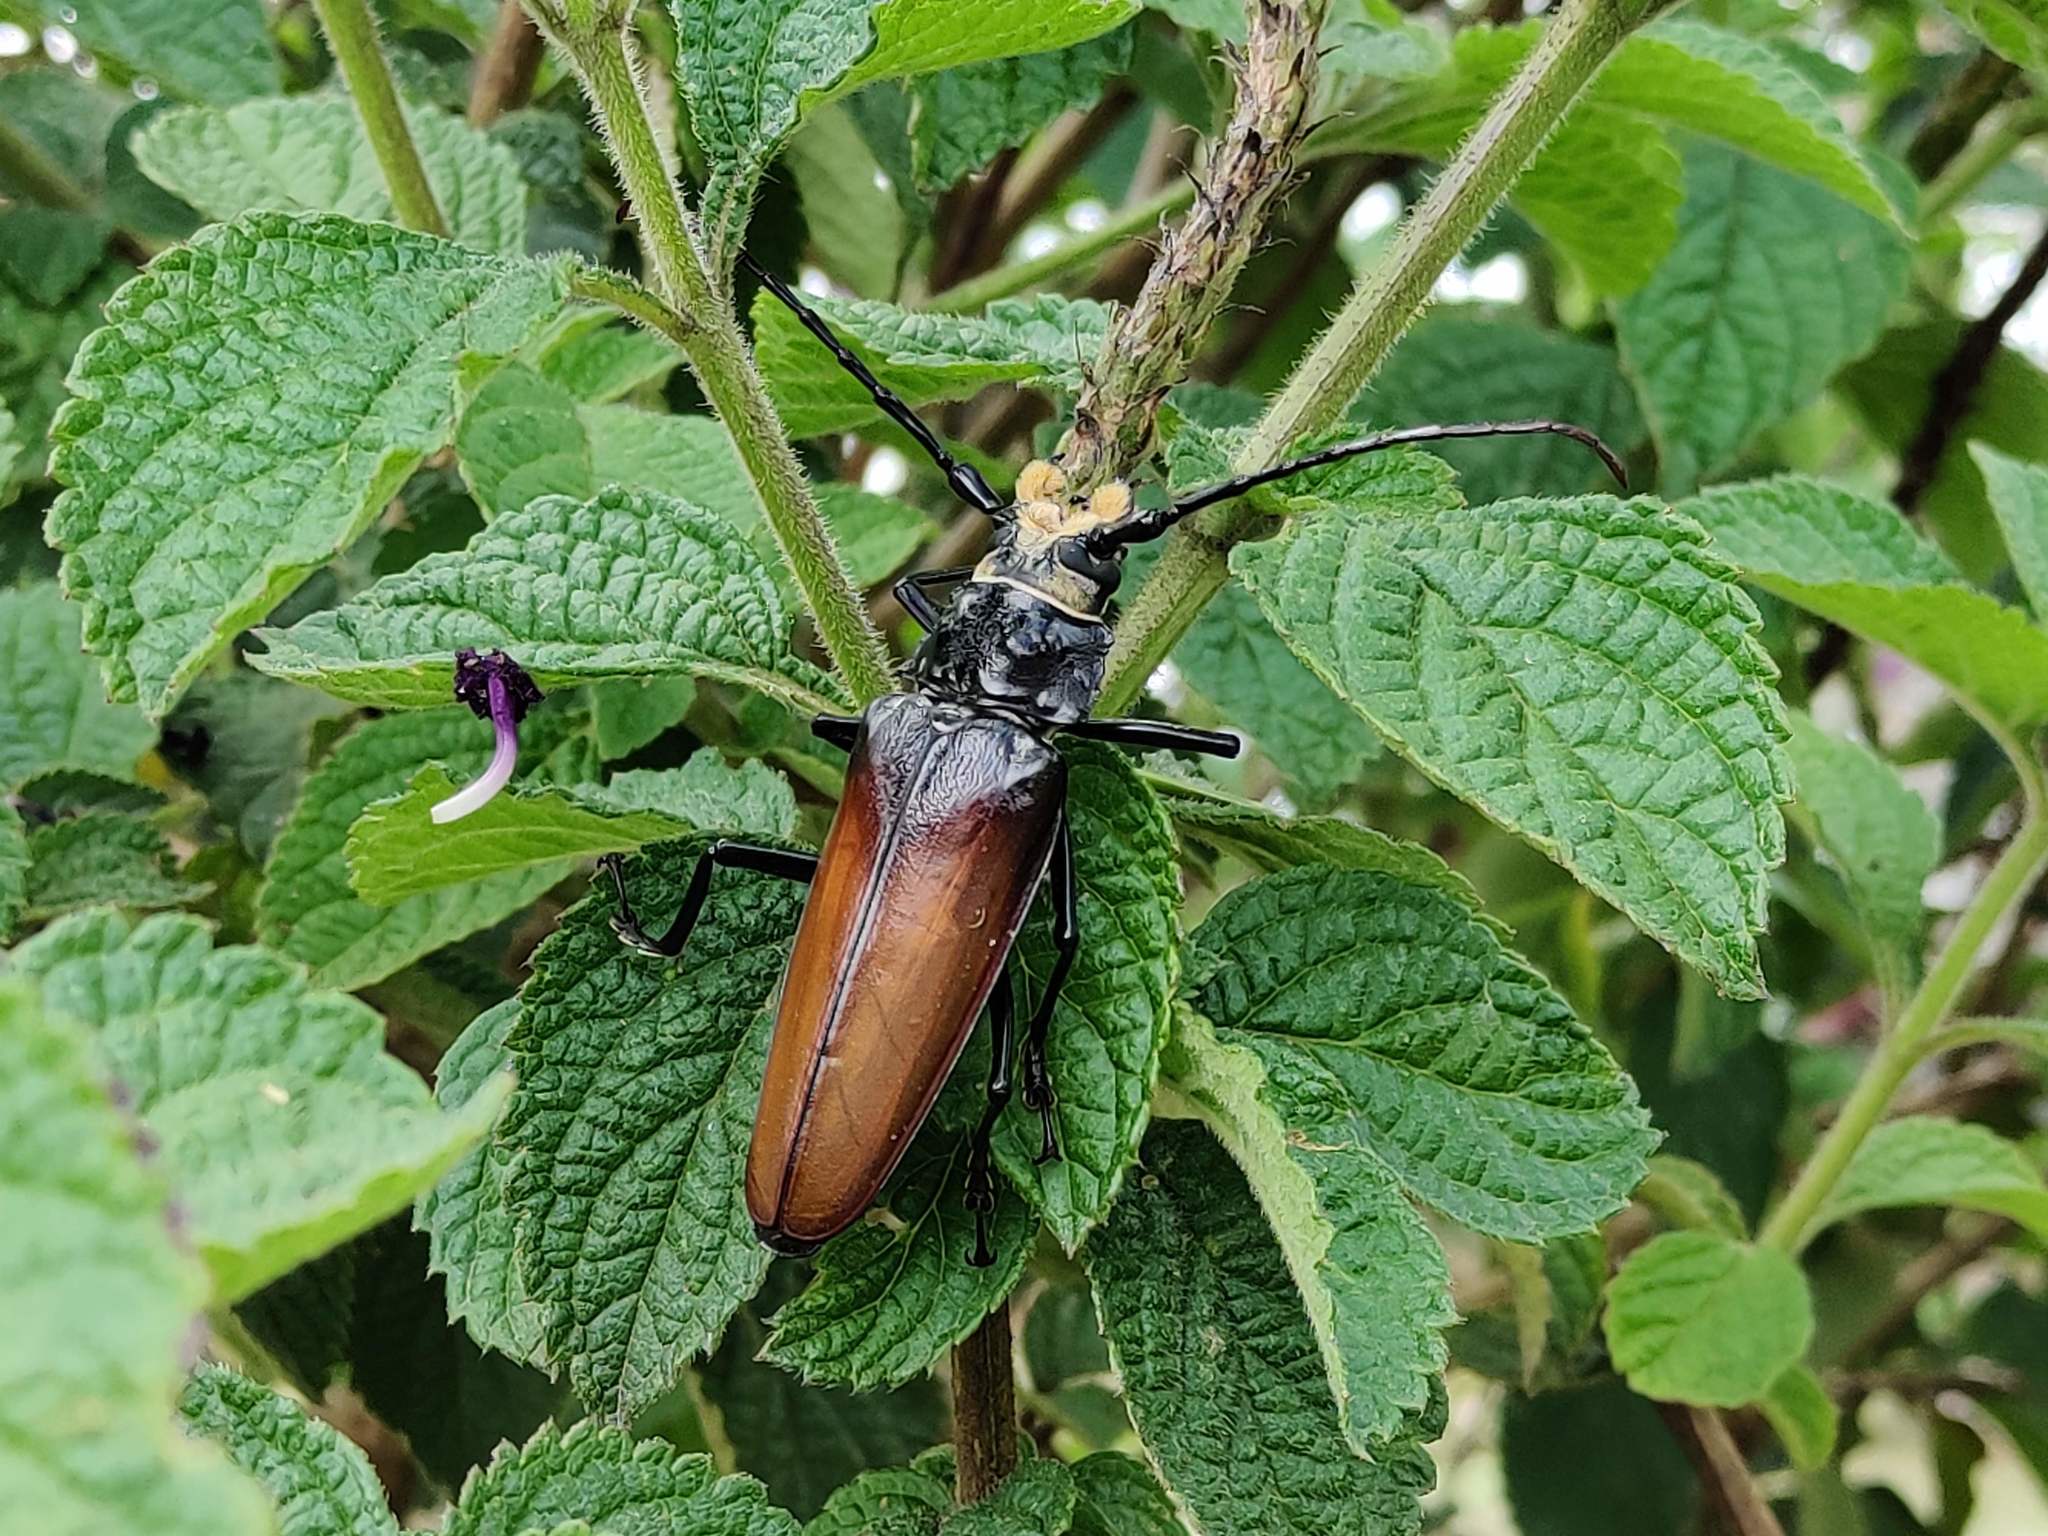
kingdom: Animalia
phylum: Arthropoda
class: Insecta
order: Coleoptera
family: Cerambycidae
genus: Callipogon
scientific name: Callipogon senex
